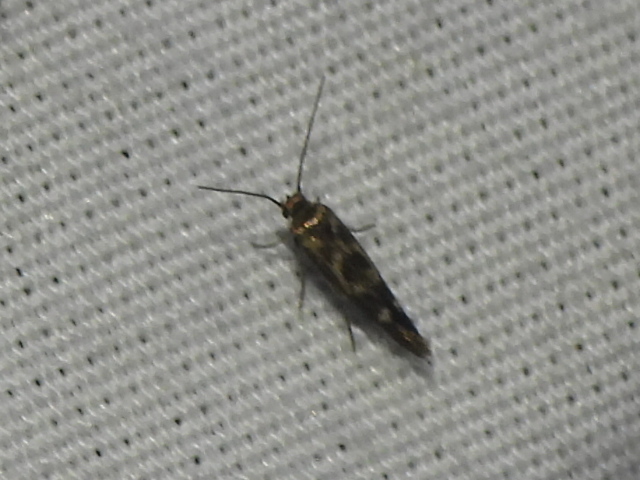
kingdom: Animalia
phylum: Arthropoda
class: Insecta
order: Lepidoptera
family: Scythrididae
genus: Scythris
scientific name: Scythris trivinctella
